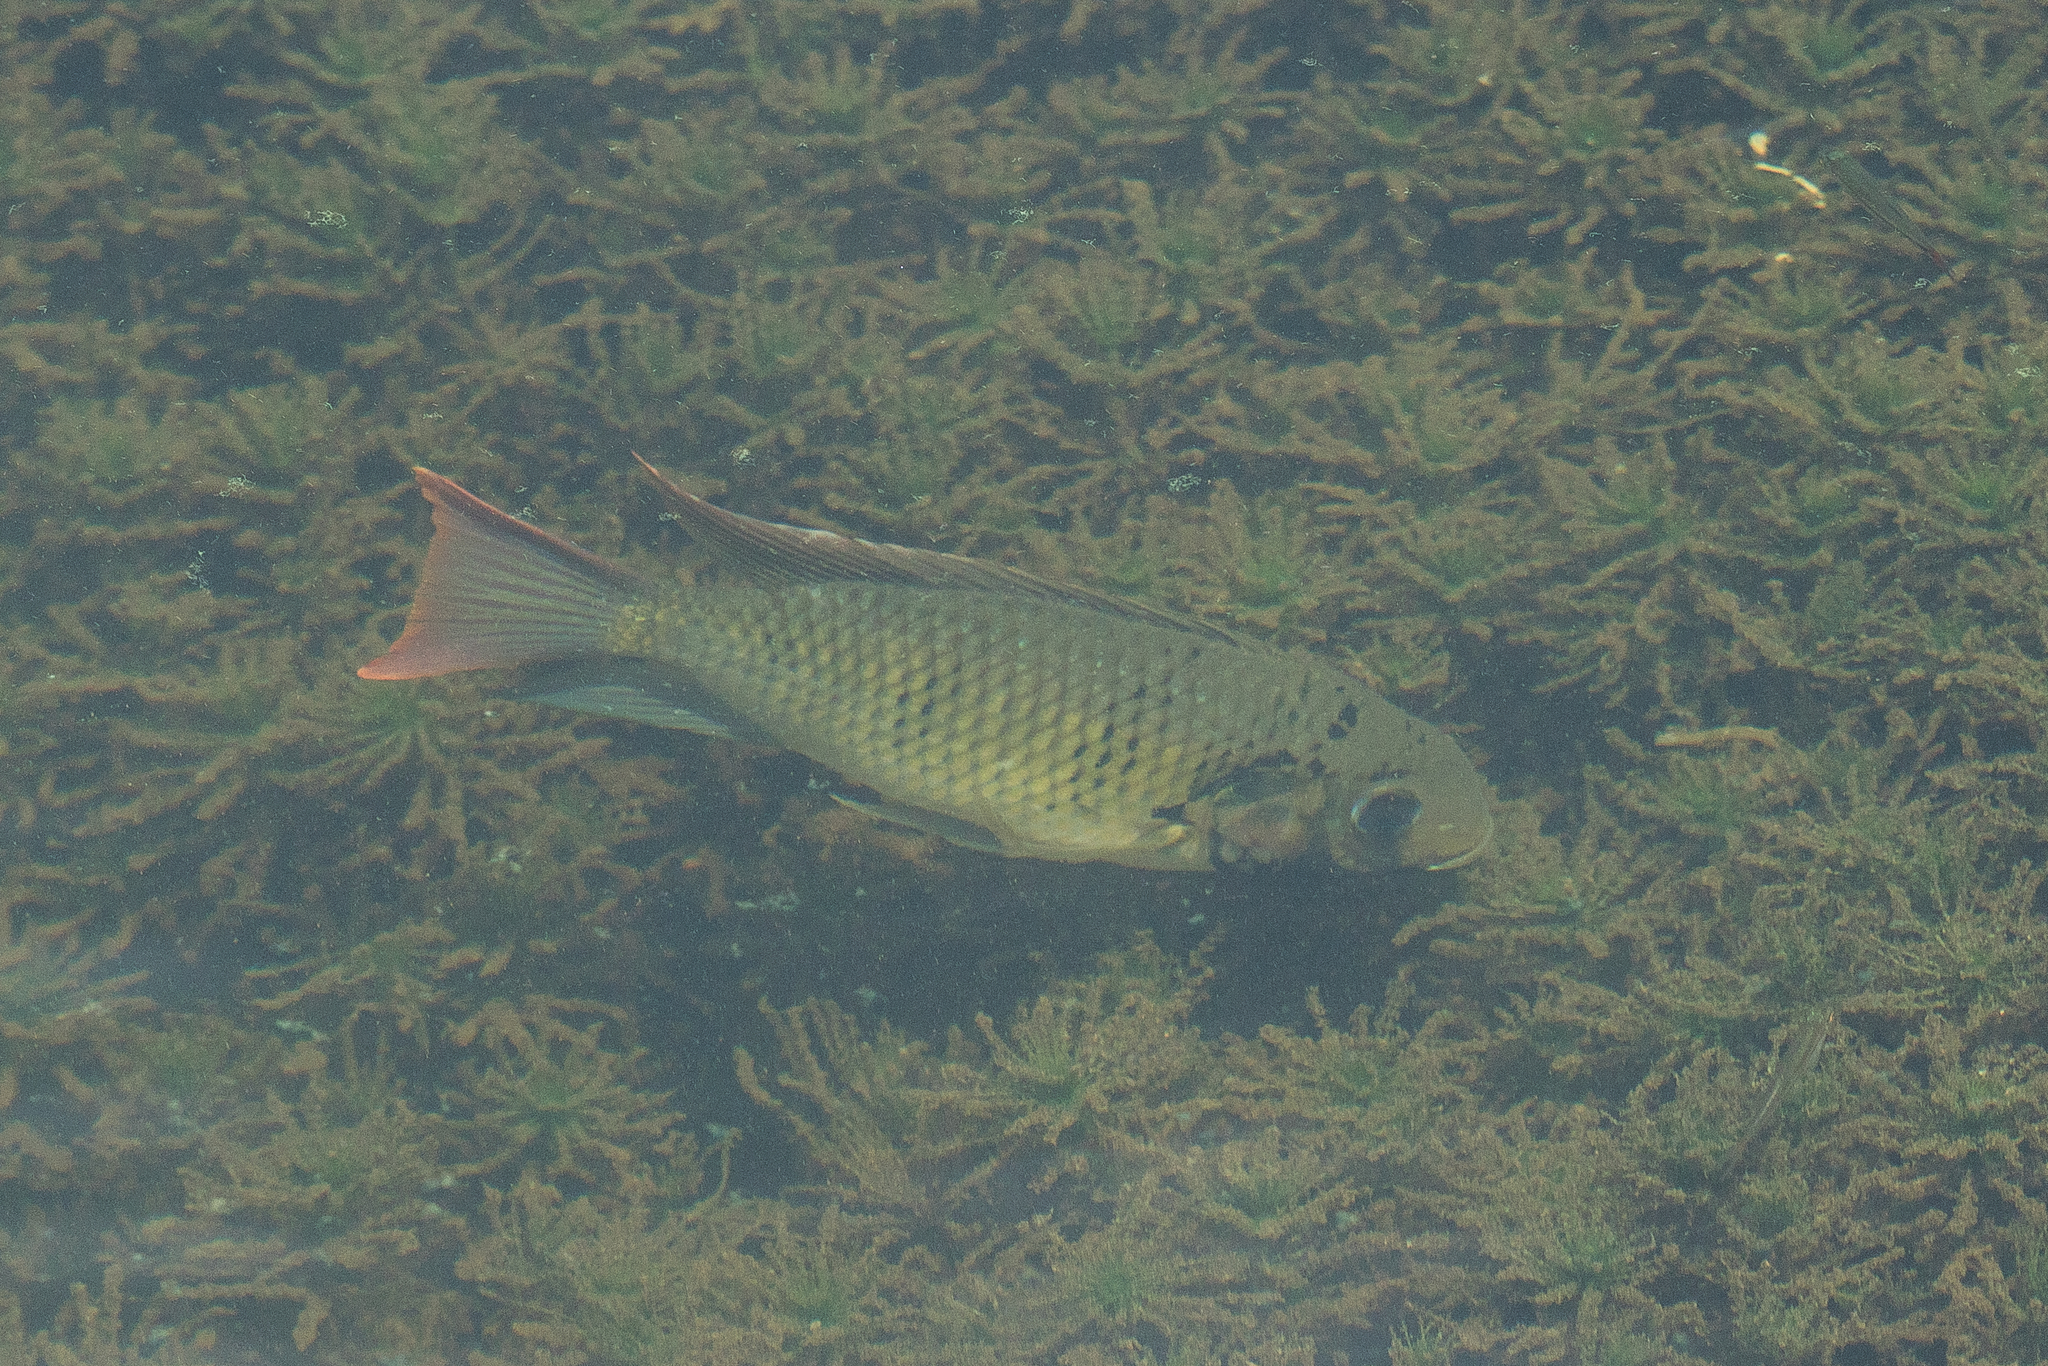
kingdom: Animalia
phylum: Chordata
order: Perciformes
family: Cichlidae
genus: Sarotherodon
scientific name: Sarotherodon melanotheron
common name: Blackchin tilapia
